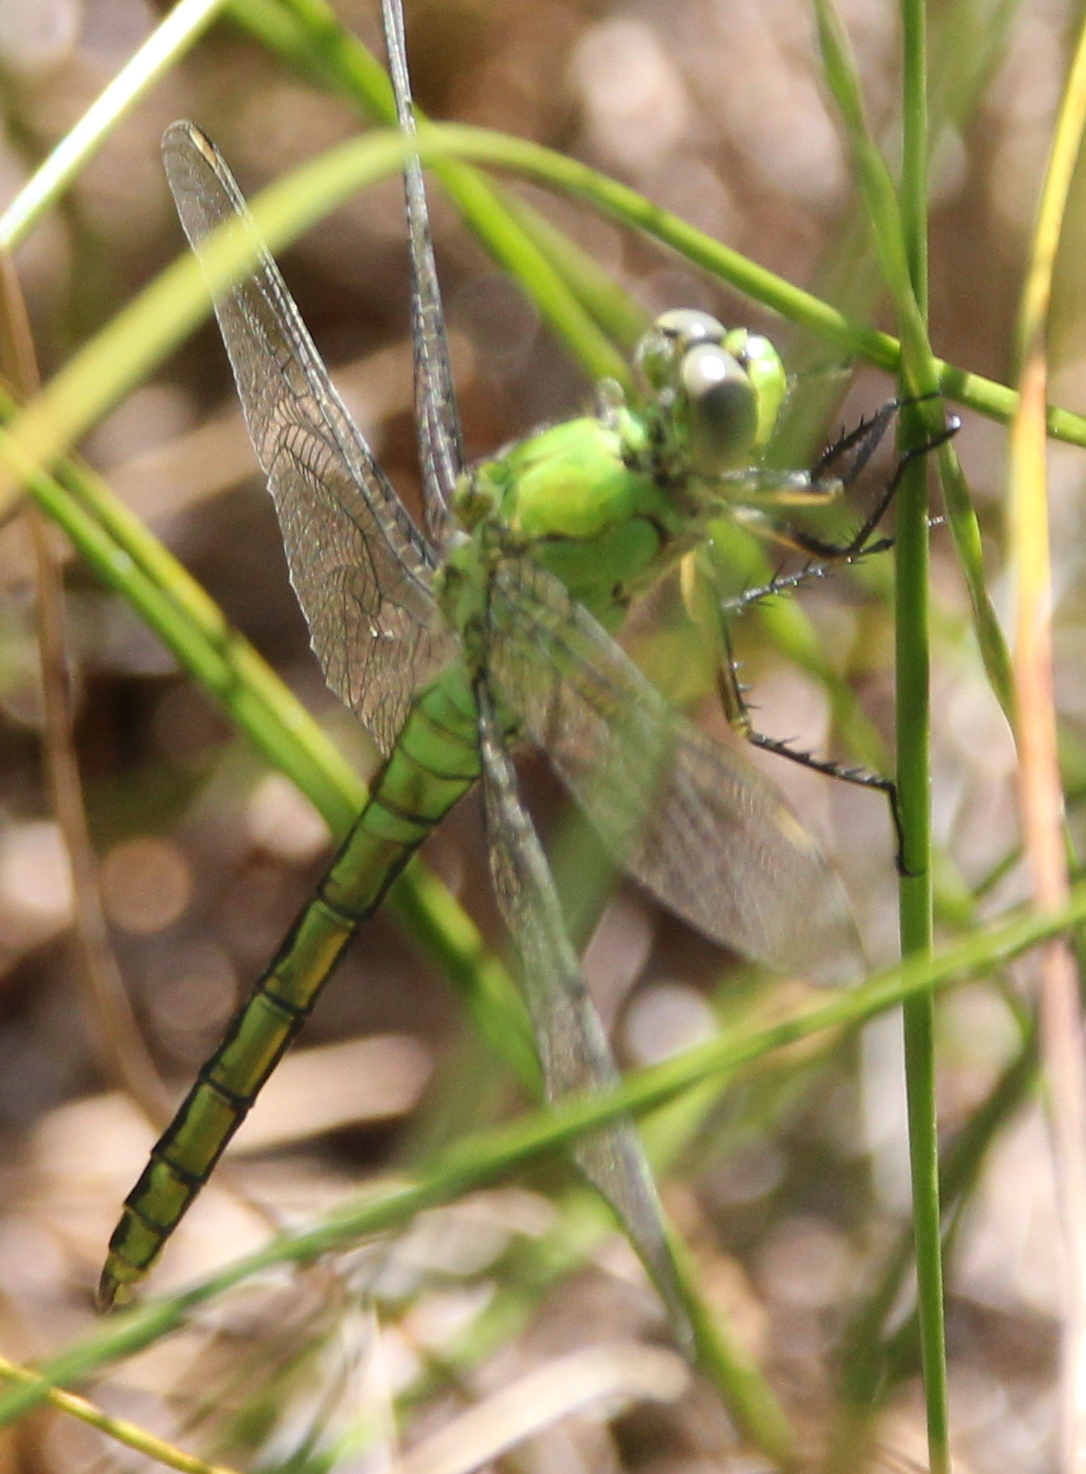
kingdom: Animalia
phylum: Arthropoda
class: Insecta
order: Odonata
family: Libellulidae
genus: Erythemis
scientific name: Erythemis collocata
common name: Western pondhawk
